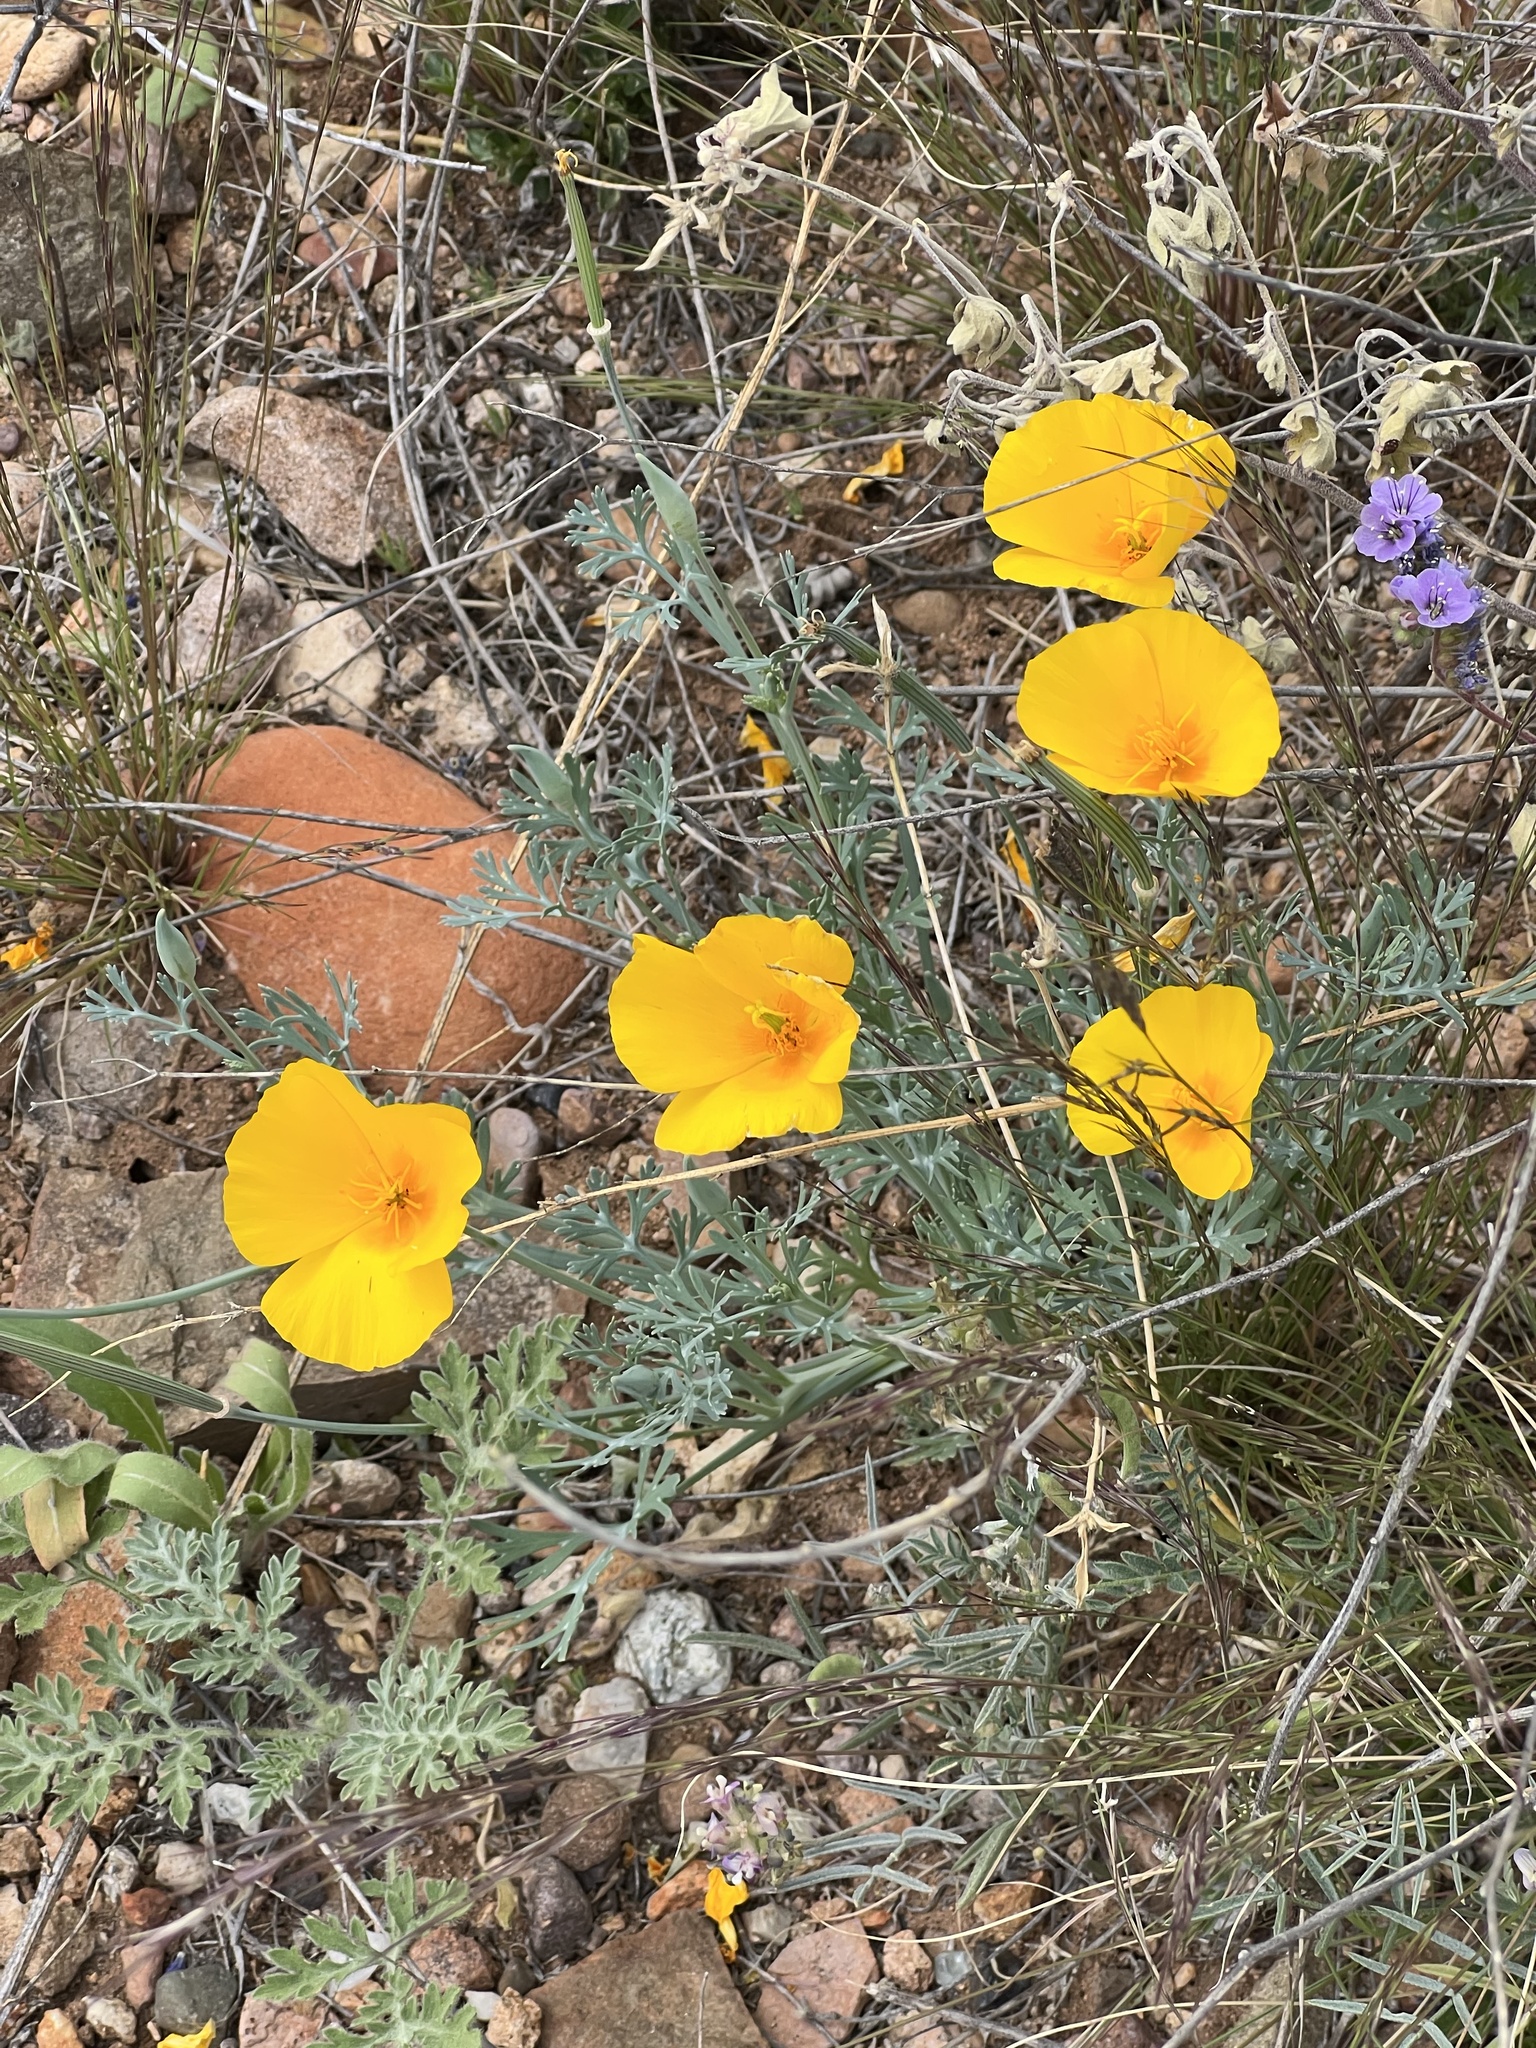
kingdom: Plantae
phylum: Tracheophyta
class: Magnoliopsida
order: Ranunculales
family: Papaveraceae
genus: Eschscholzia
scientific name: Eschscholzia californica
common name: California poppy
